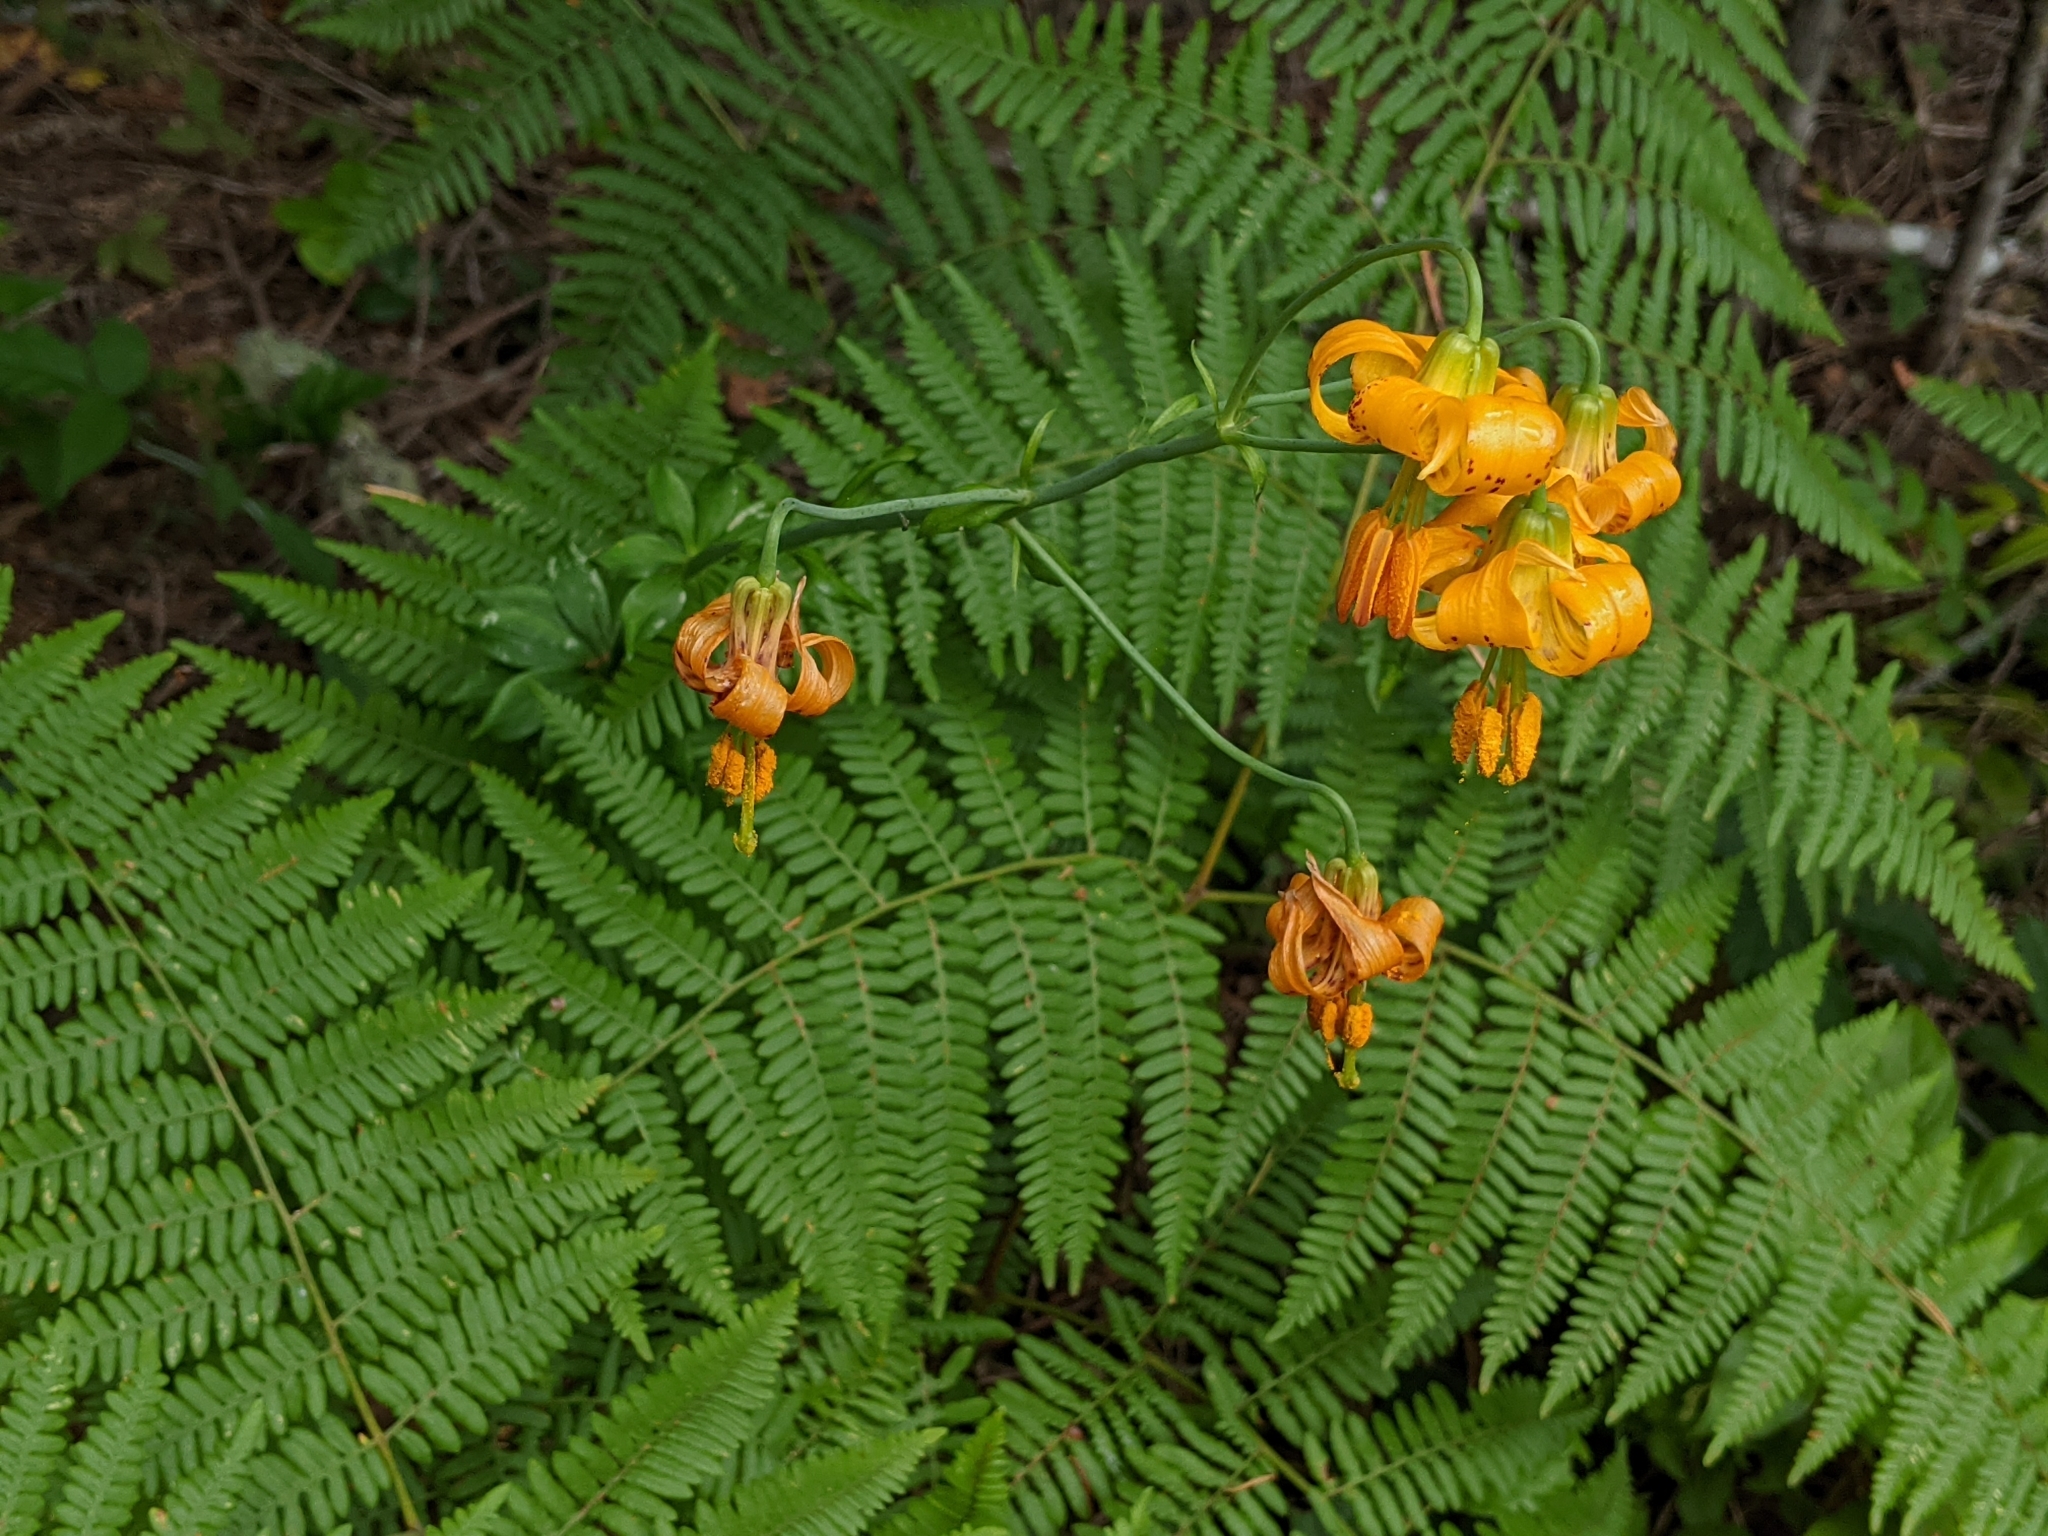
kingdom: Plantae
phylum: Tracheophyta
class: Liliopsida
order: Liliales
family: Liliaceae
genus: Lilium
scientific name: Lilium columbianum
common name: Columbia lily
